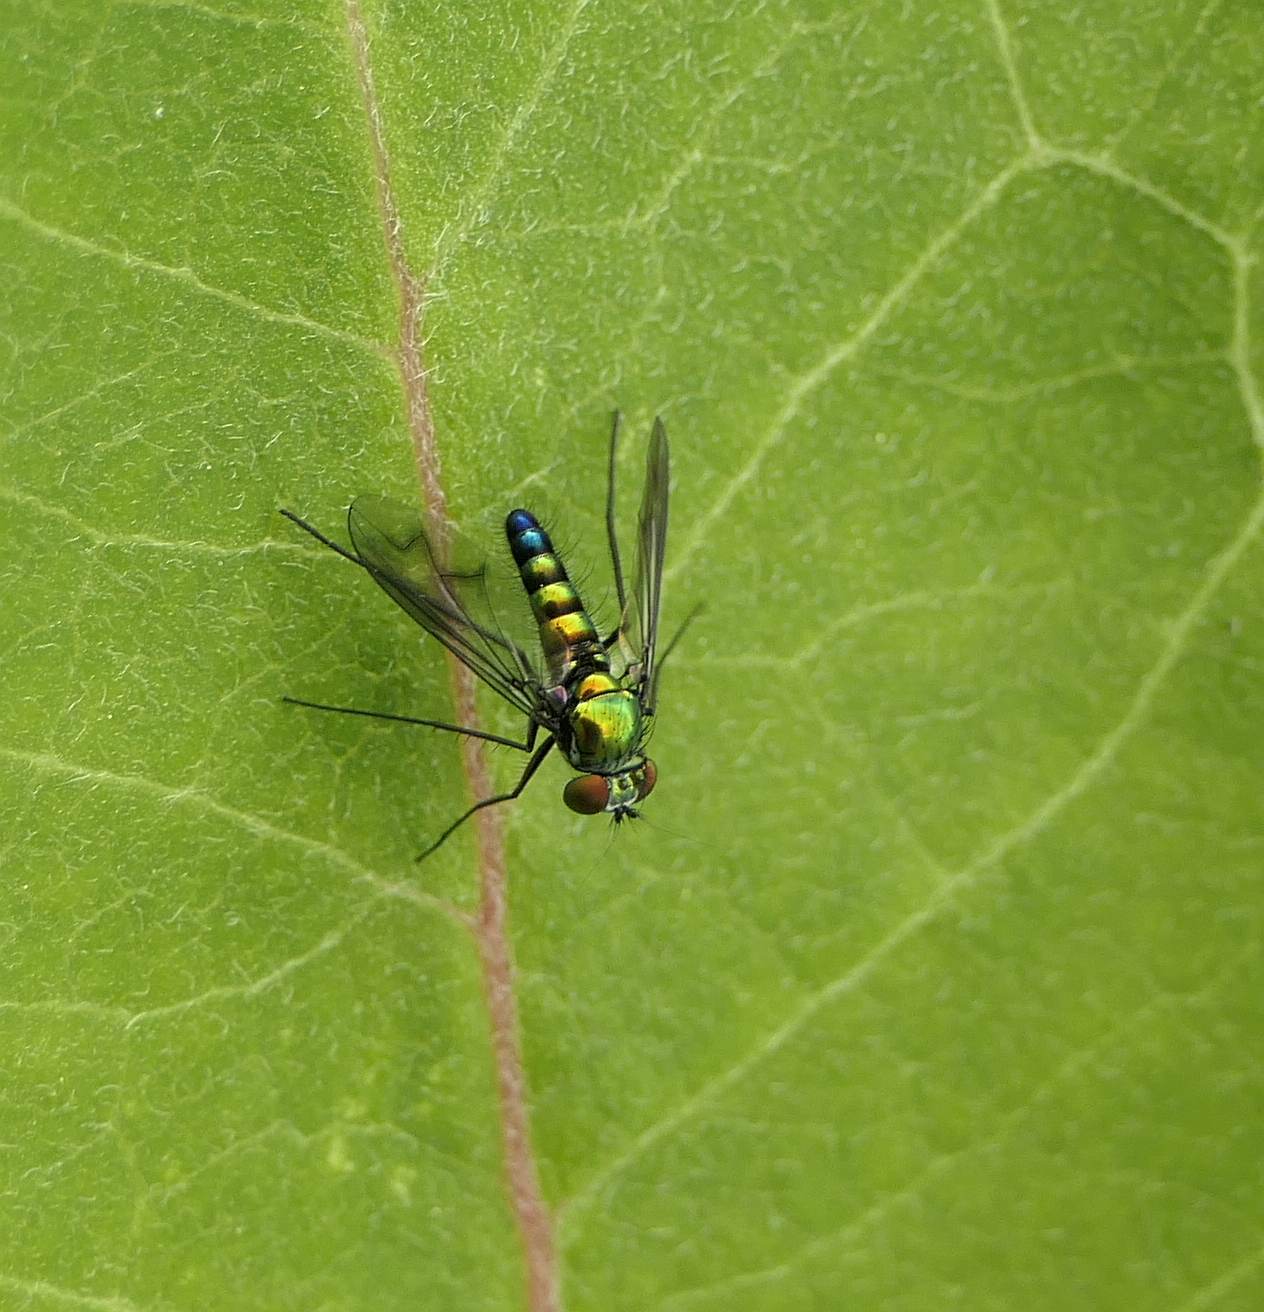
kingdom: Animalia
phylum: Arthropoda
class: Insecta
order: Diptera
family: Dolichopodidae
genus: Condylostylus
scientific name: Condylostylus patibulatus
